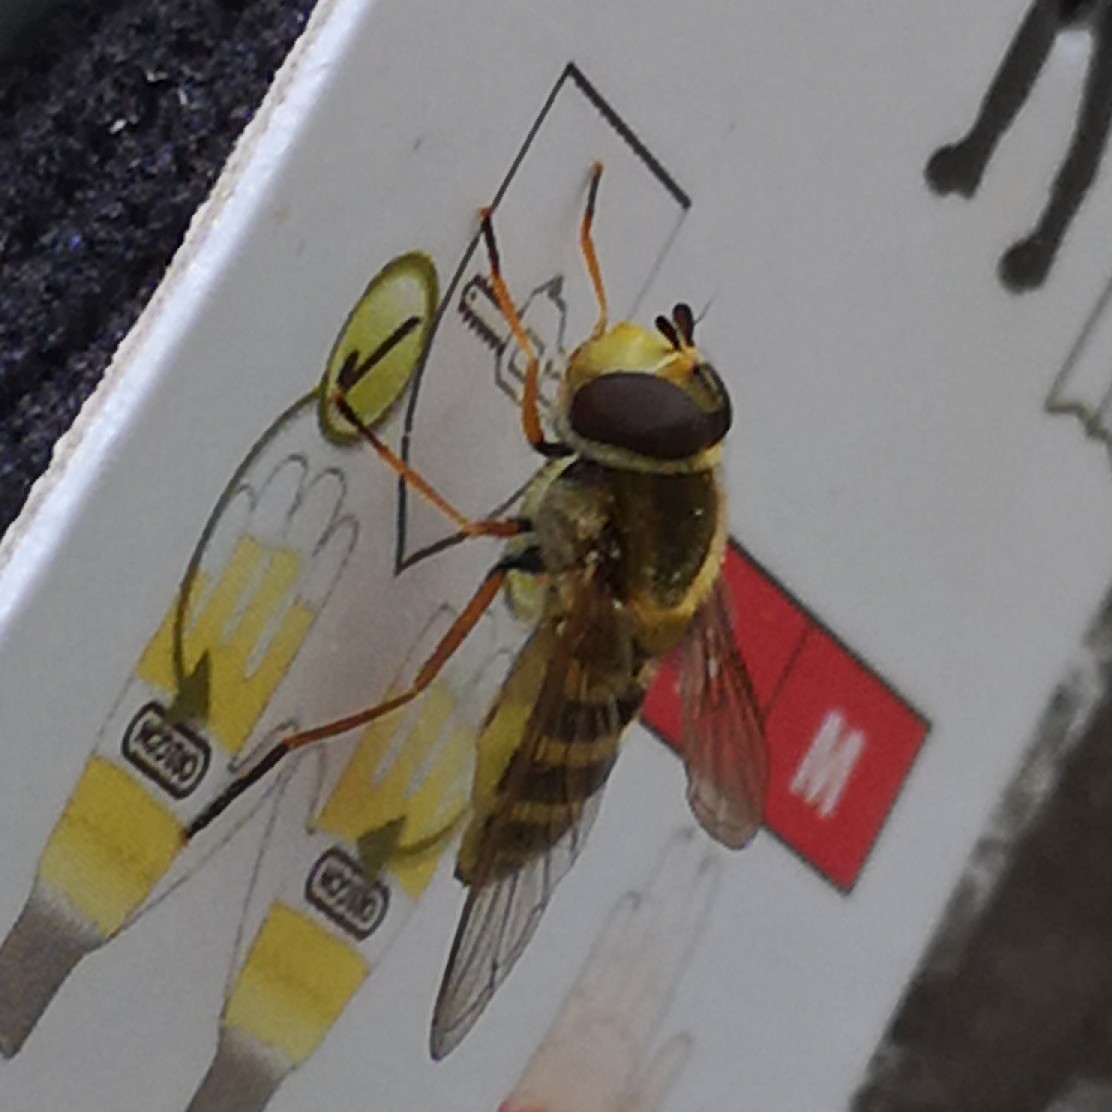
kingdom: Animalia
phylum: Arthropoda
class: Insecta
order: Diptera
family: Syrphidae
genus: Syrphus
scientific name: Syrphus ribesii
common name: Common flower fly
